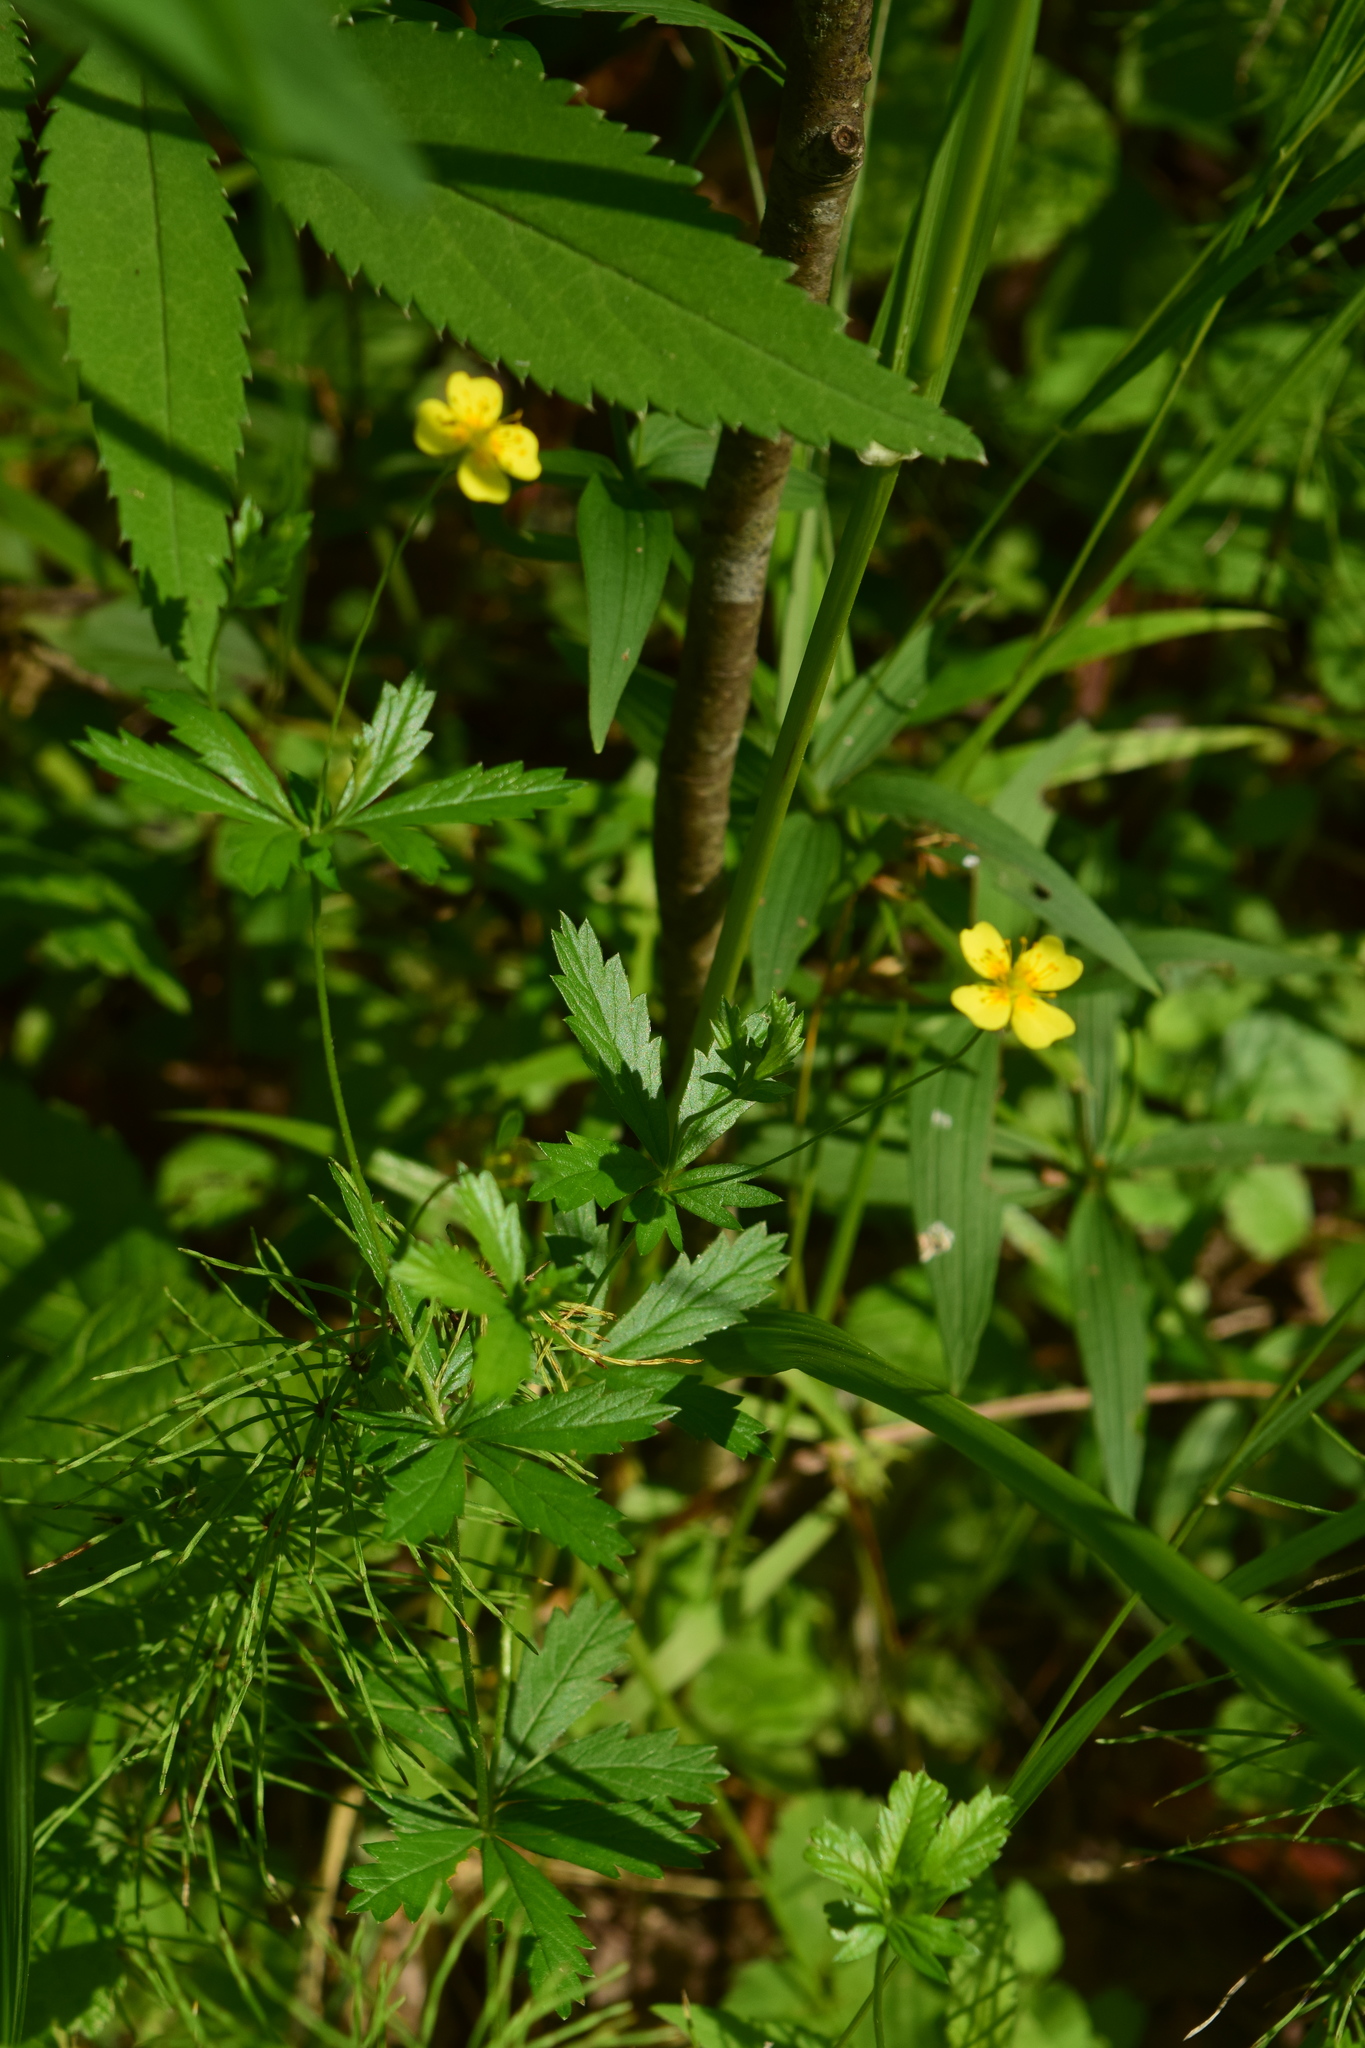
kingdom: Plantae
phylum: Tracheophyta
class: Magnoliopsida
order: Rosales
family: Rosaceae
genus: Potentilla
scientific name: Potentilla erecta
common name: Tormentil
